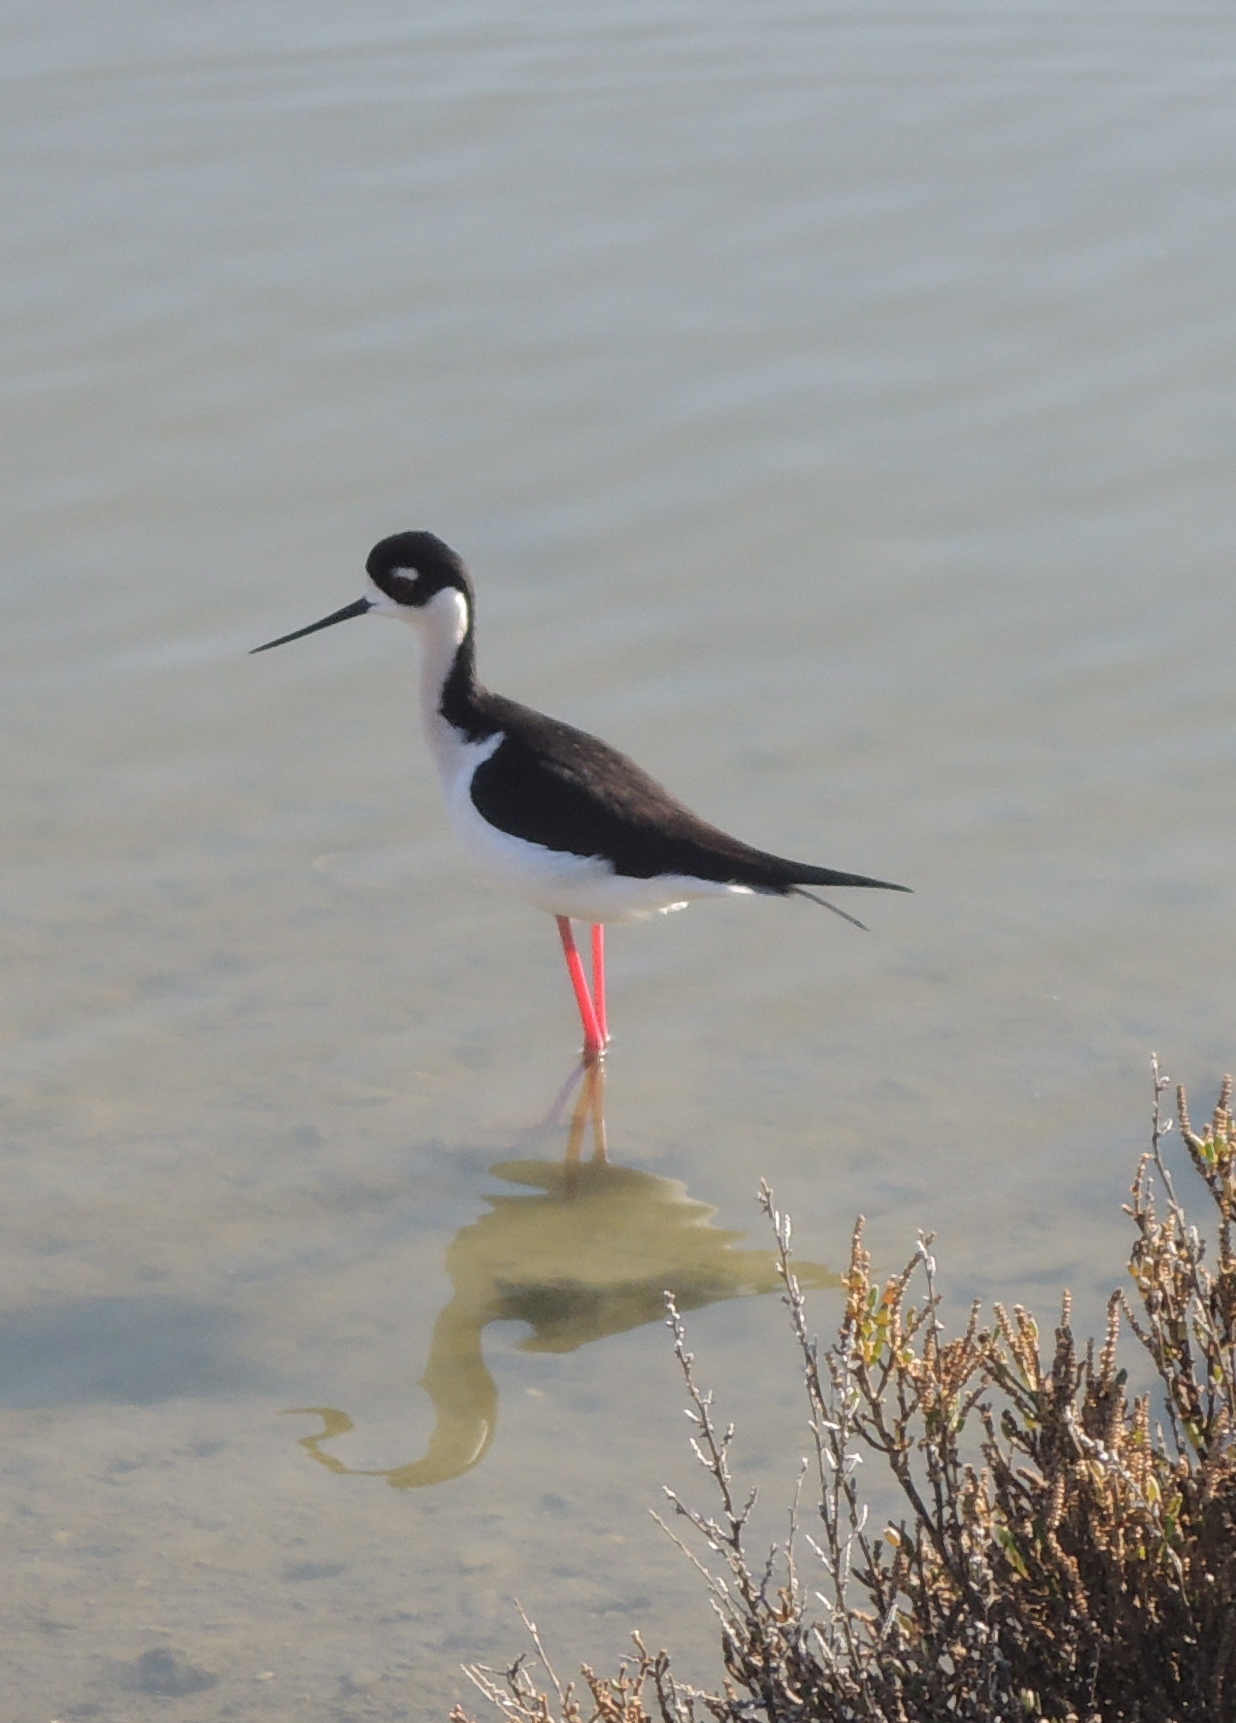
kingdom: Animalia
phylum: Chordata
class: Aves
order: Charadriiformes
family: Recurvirostridae
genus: Himantopus
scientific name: Himantopus mexicanus
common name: Black-necked stilt
